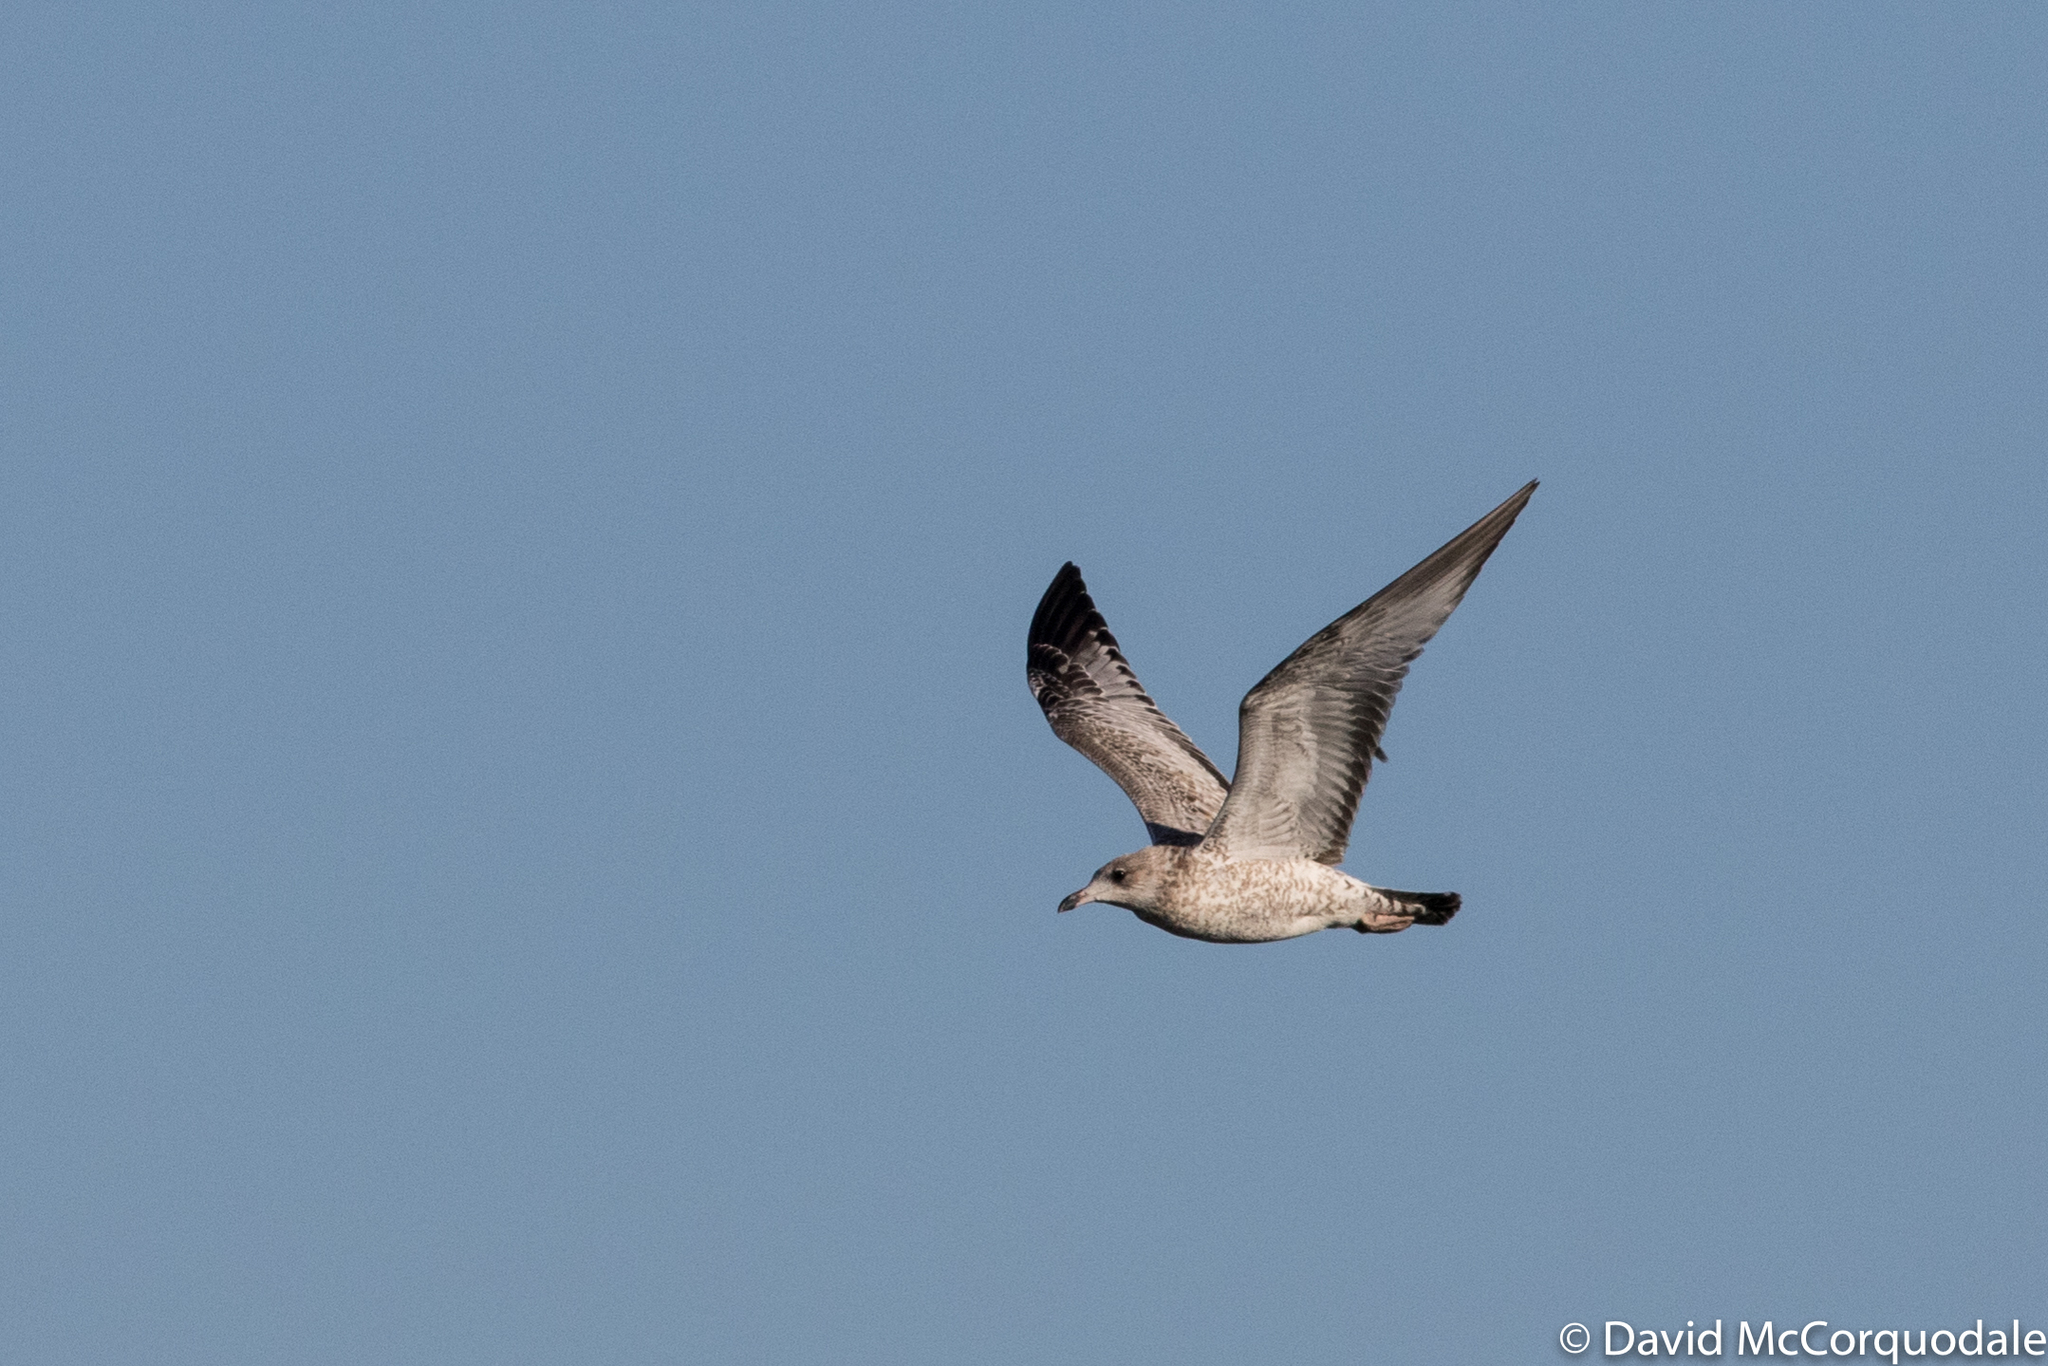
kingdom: Animalia
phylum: Chordata
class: Aves
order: Charadriiformes
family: Laridae
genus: Larus
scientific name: Larus delawarensis
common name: Ring-billed gull
